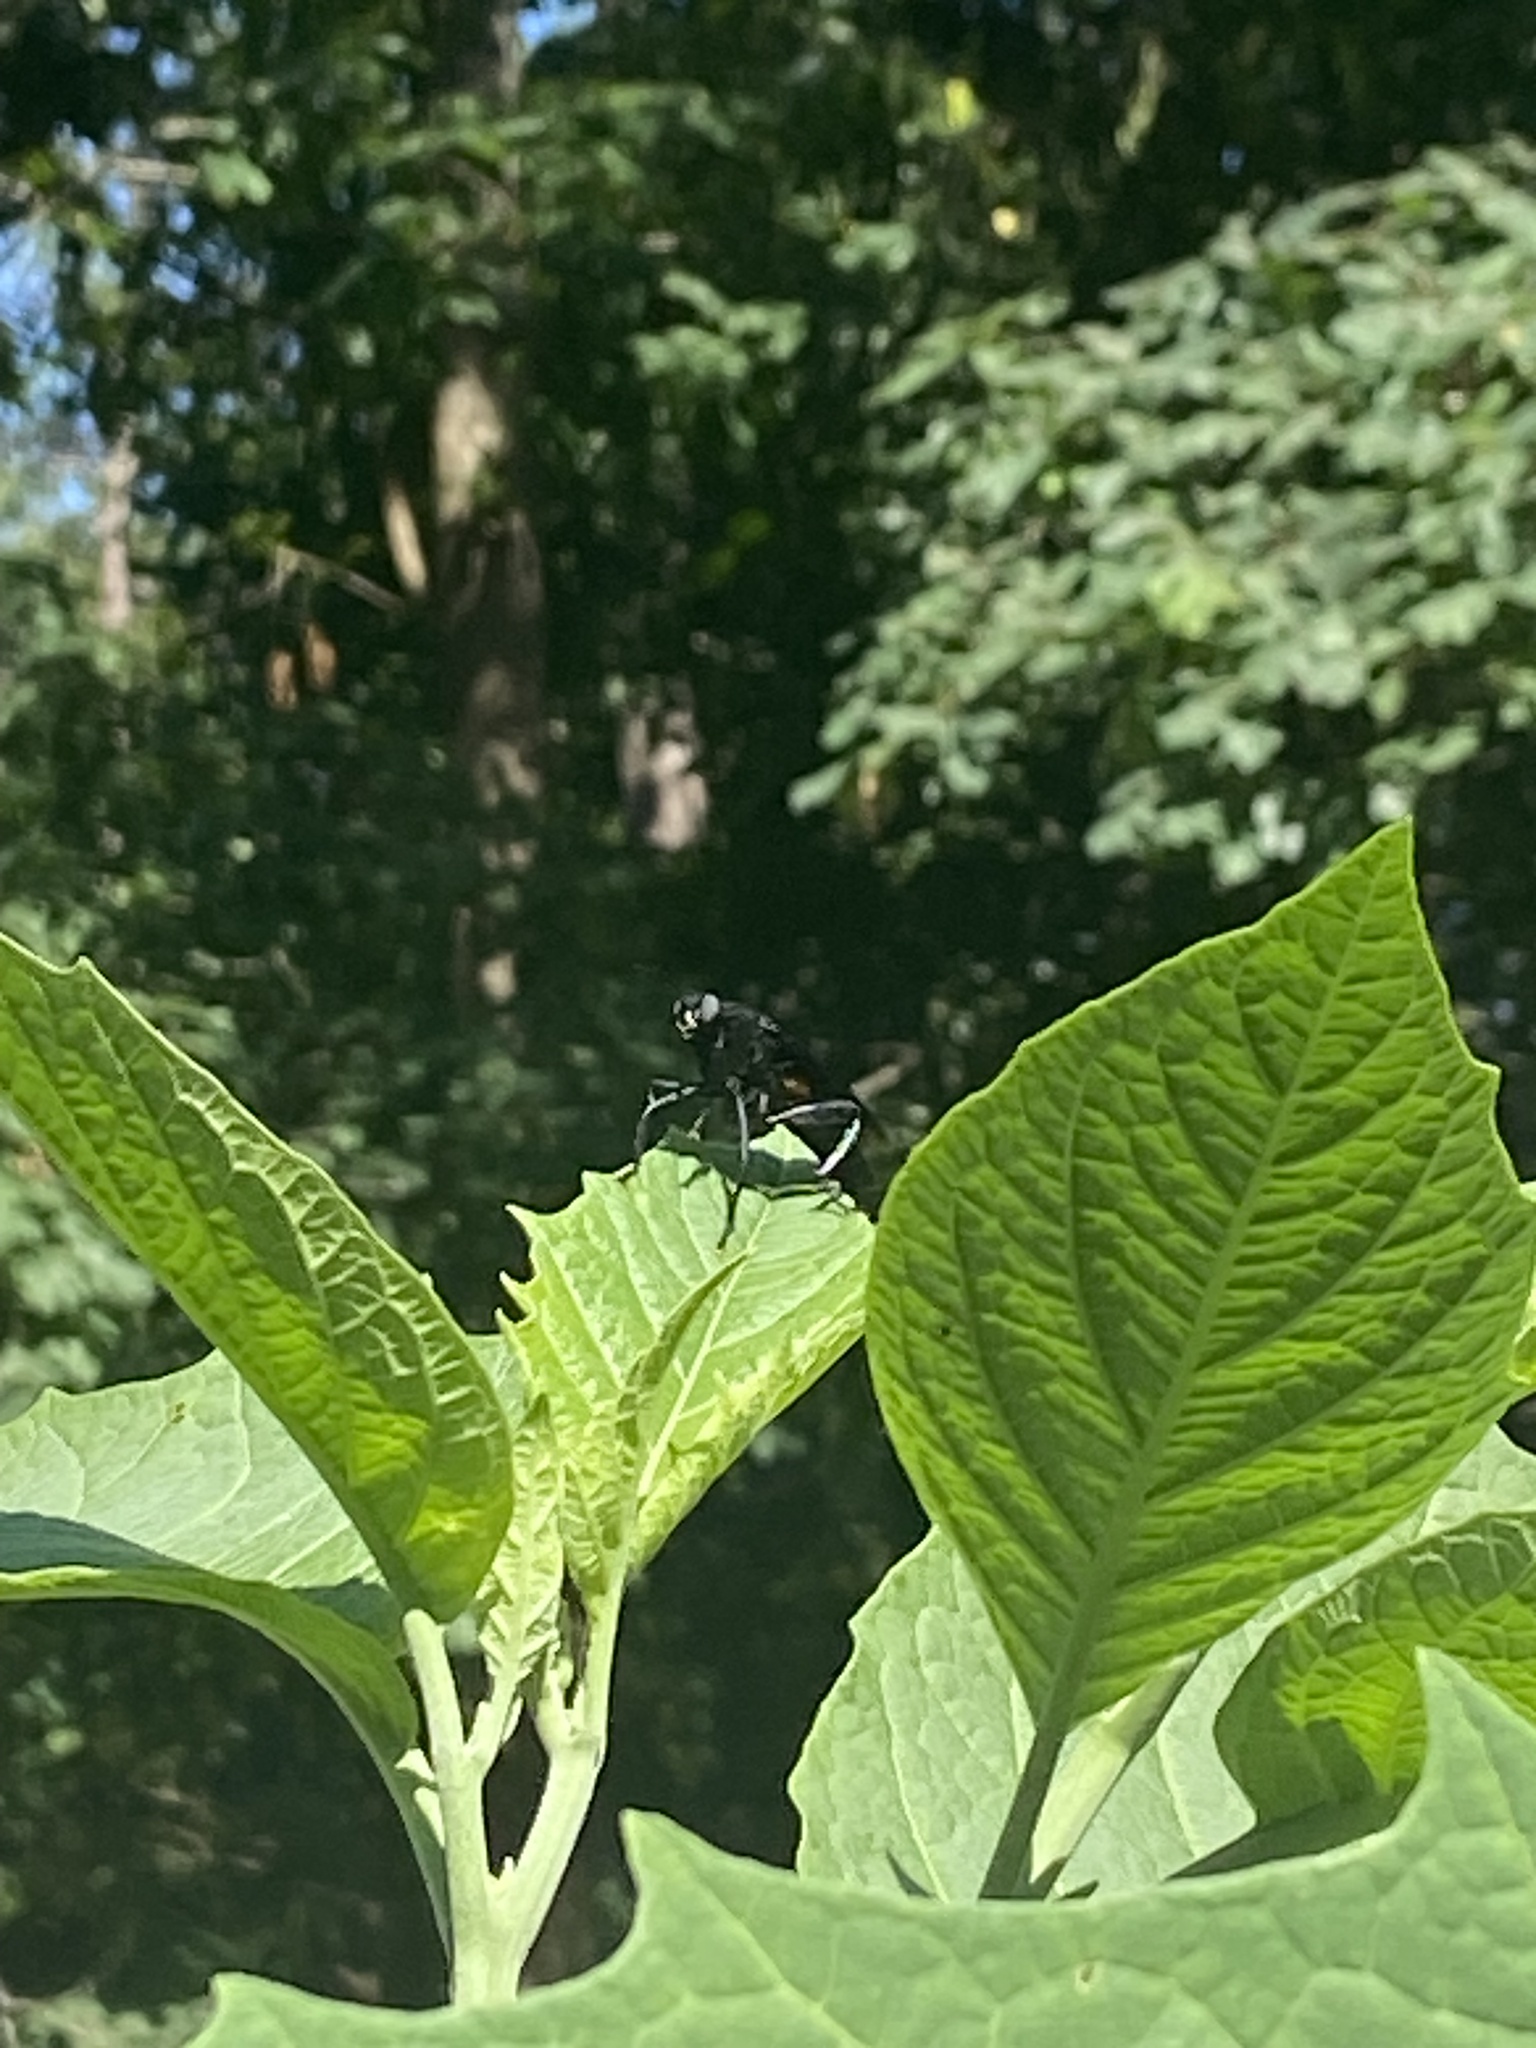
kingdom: Animalia
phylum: Arthropoda
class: Insecta
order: Diptera
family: Mydidae
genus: Mydas
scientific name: Mydas clavatus
